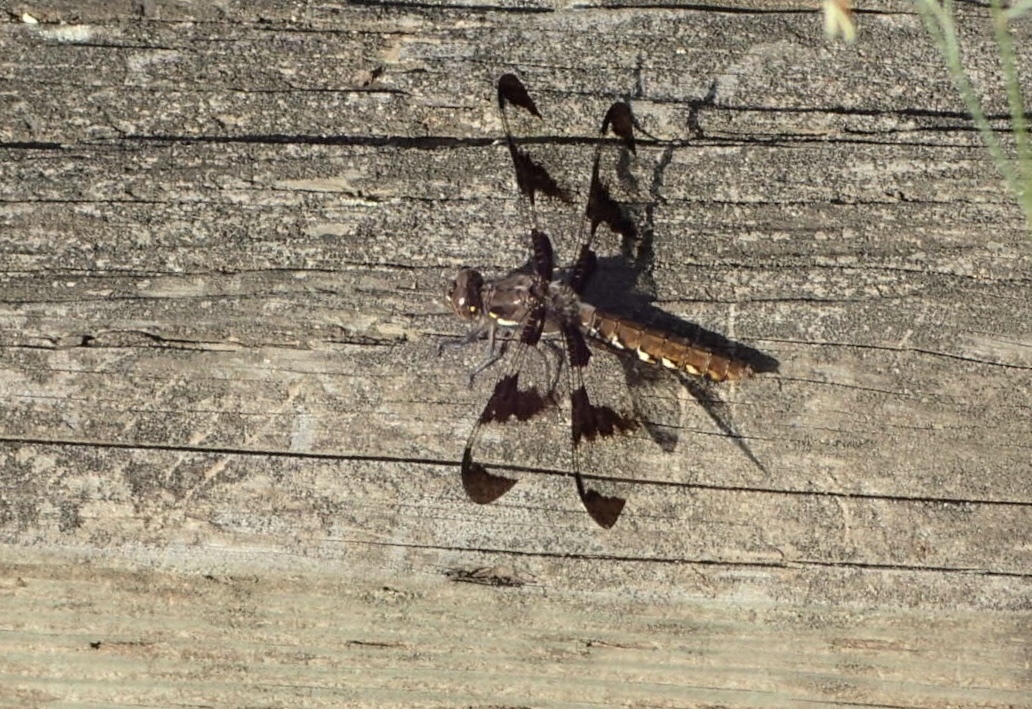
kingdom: Animalia
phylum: Arthropoda
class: Insecta
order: Odonata
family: Libellulidae
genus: Plathemis
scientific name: Plathemis lydia
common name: Common whitetail
